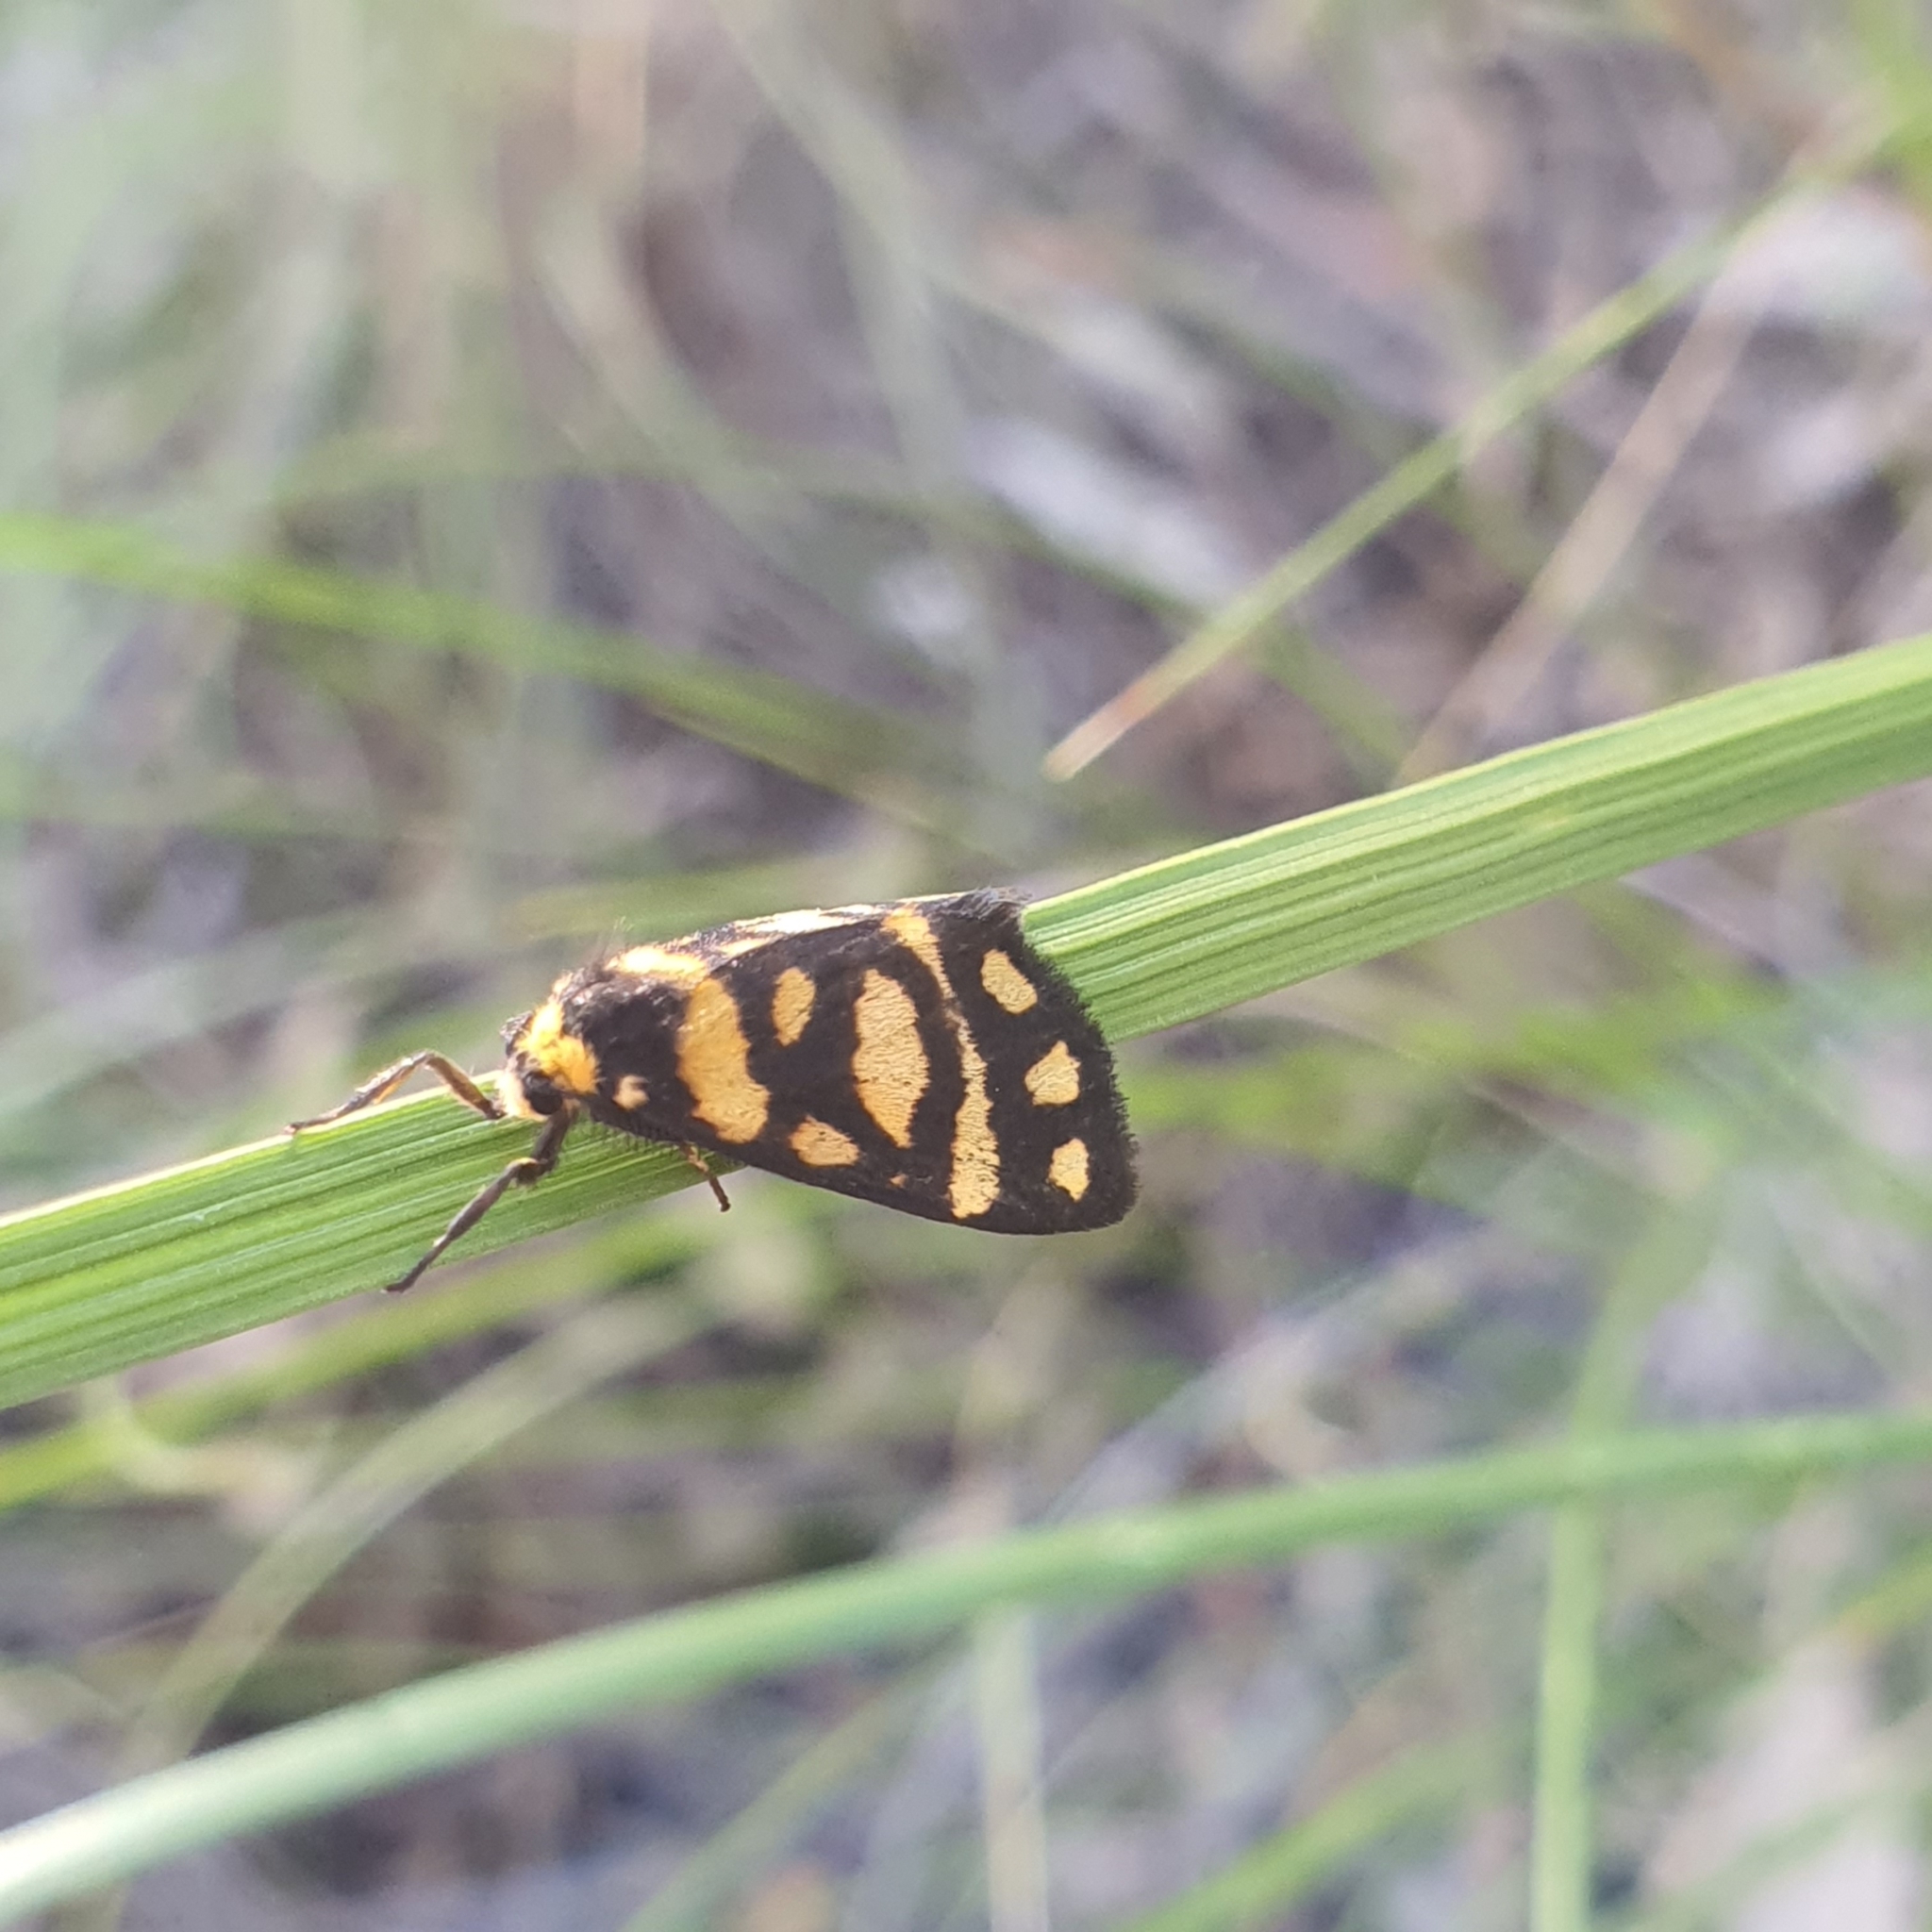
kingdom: Animalia
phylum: Arthropoda
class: Insecta
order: Lepidoptera
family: Erebidae
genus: Asura
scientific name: Asura lydia
